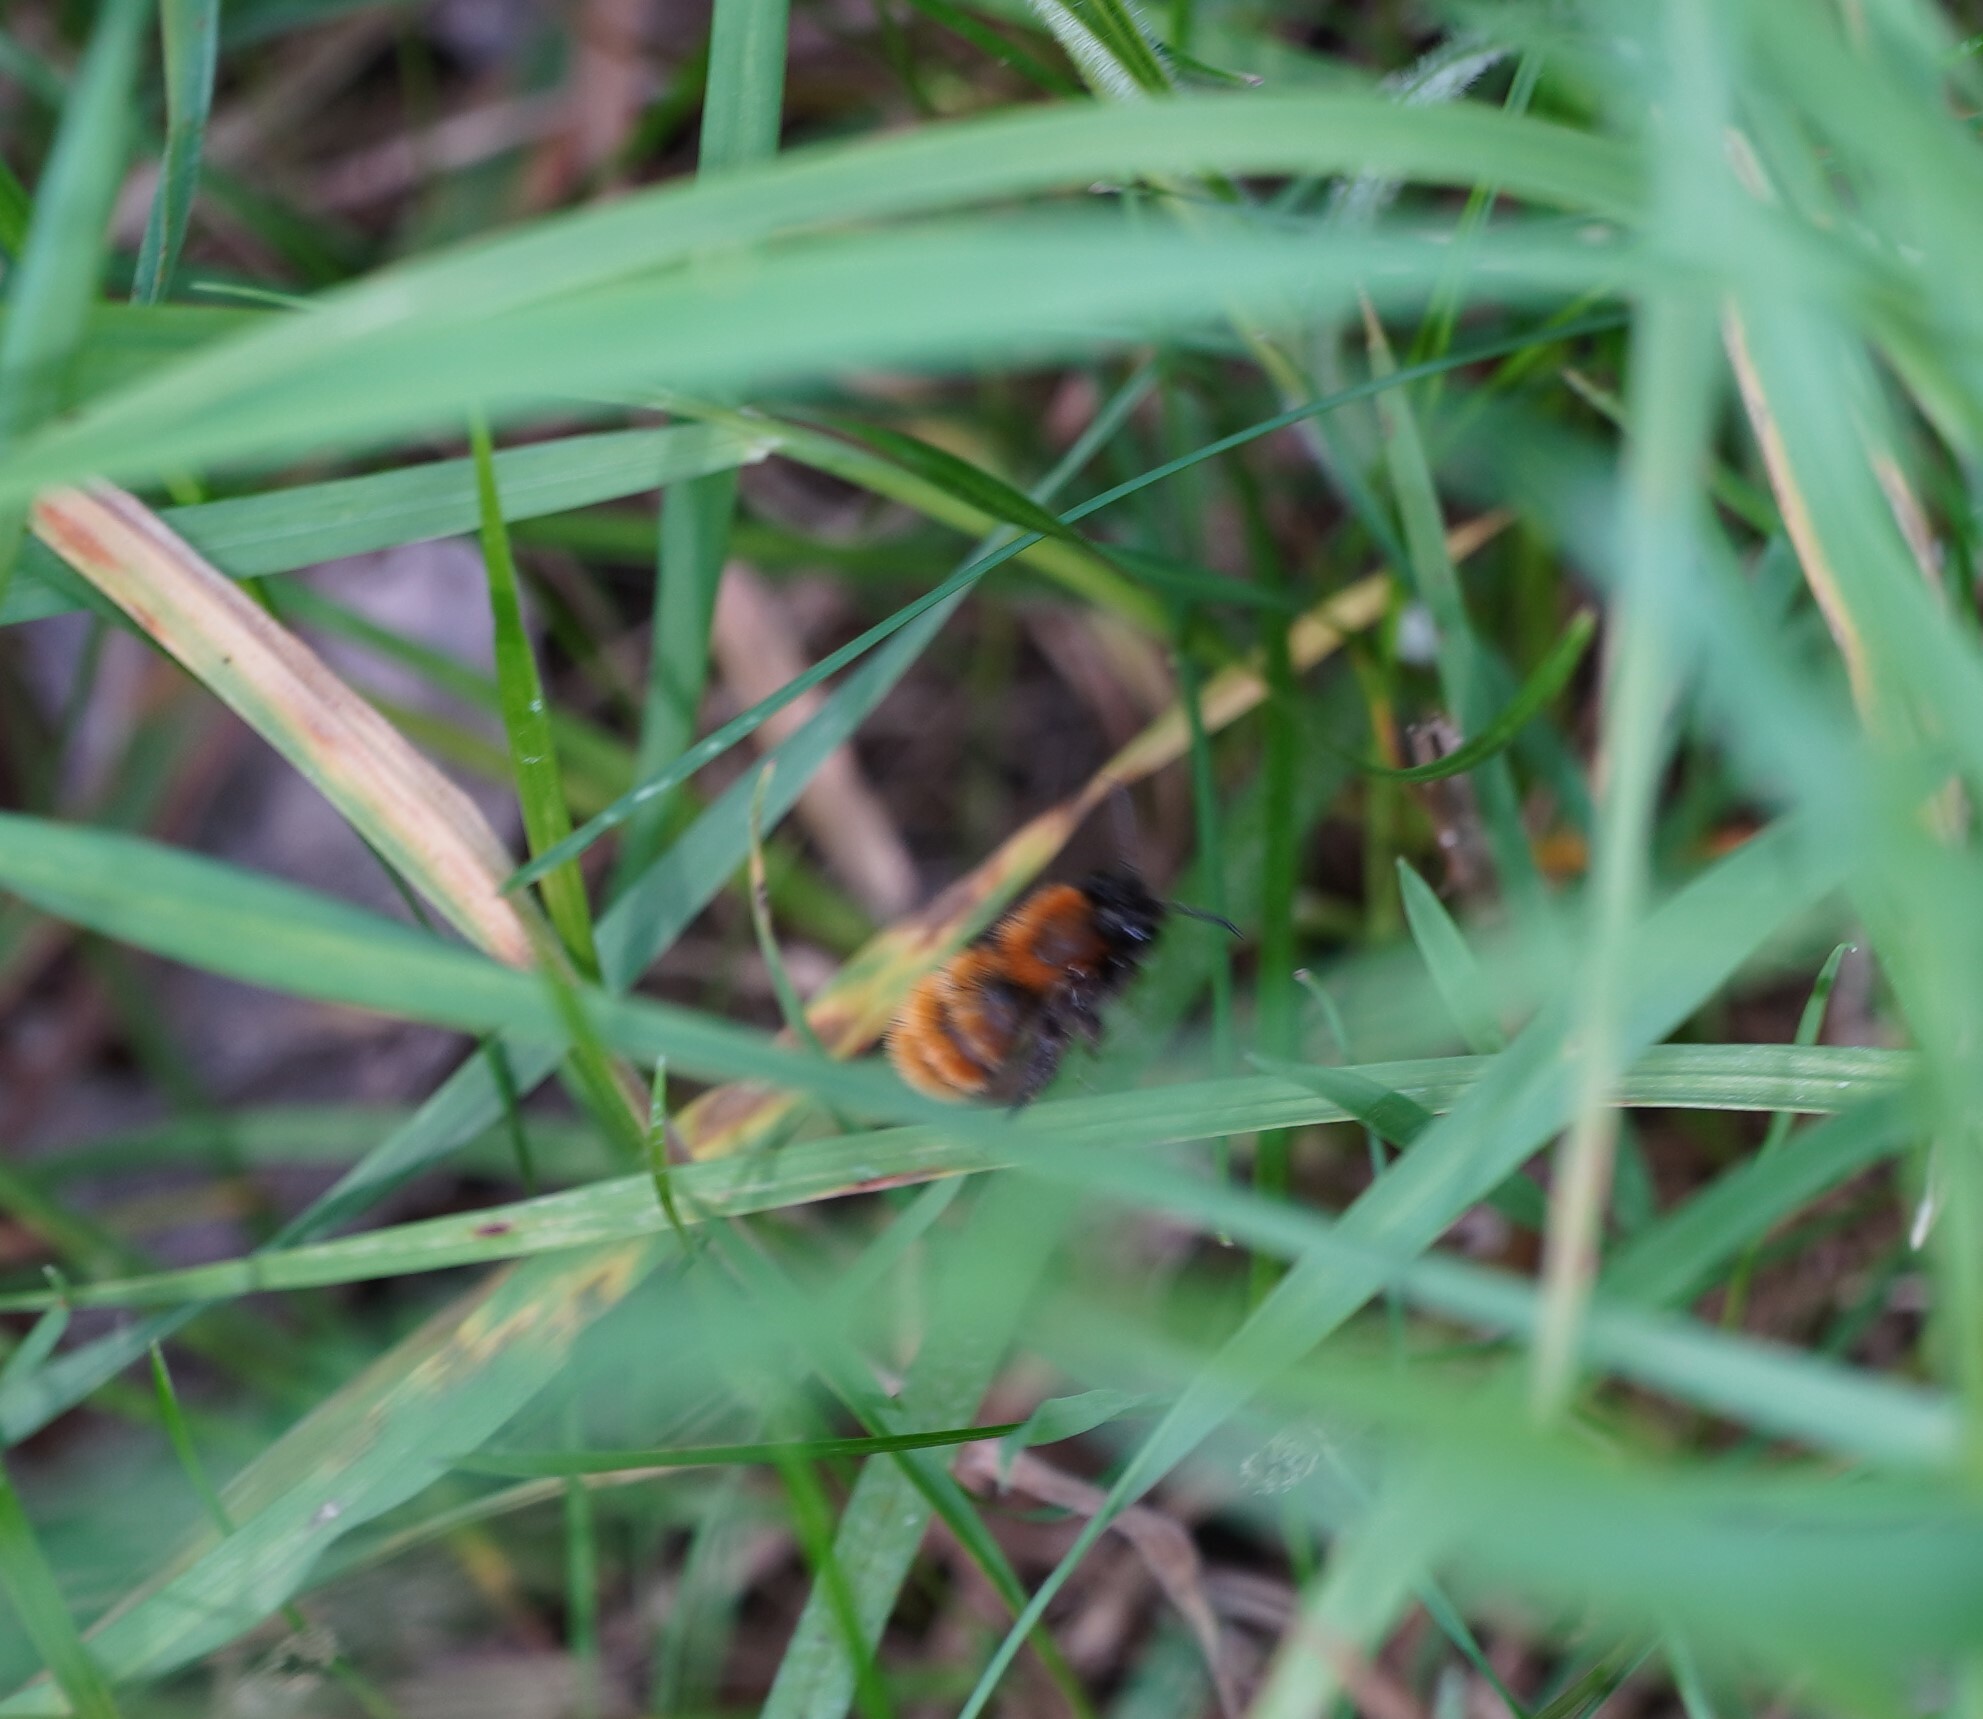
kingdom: Animalia
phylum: Arthropoda
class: Insecta
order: Hymenoptera
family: Andrenidae
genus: Andrena
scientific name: Andrena fulva
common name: Tawny mining bee
